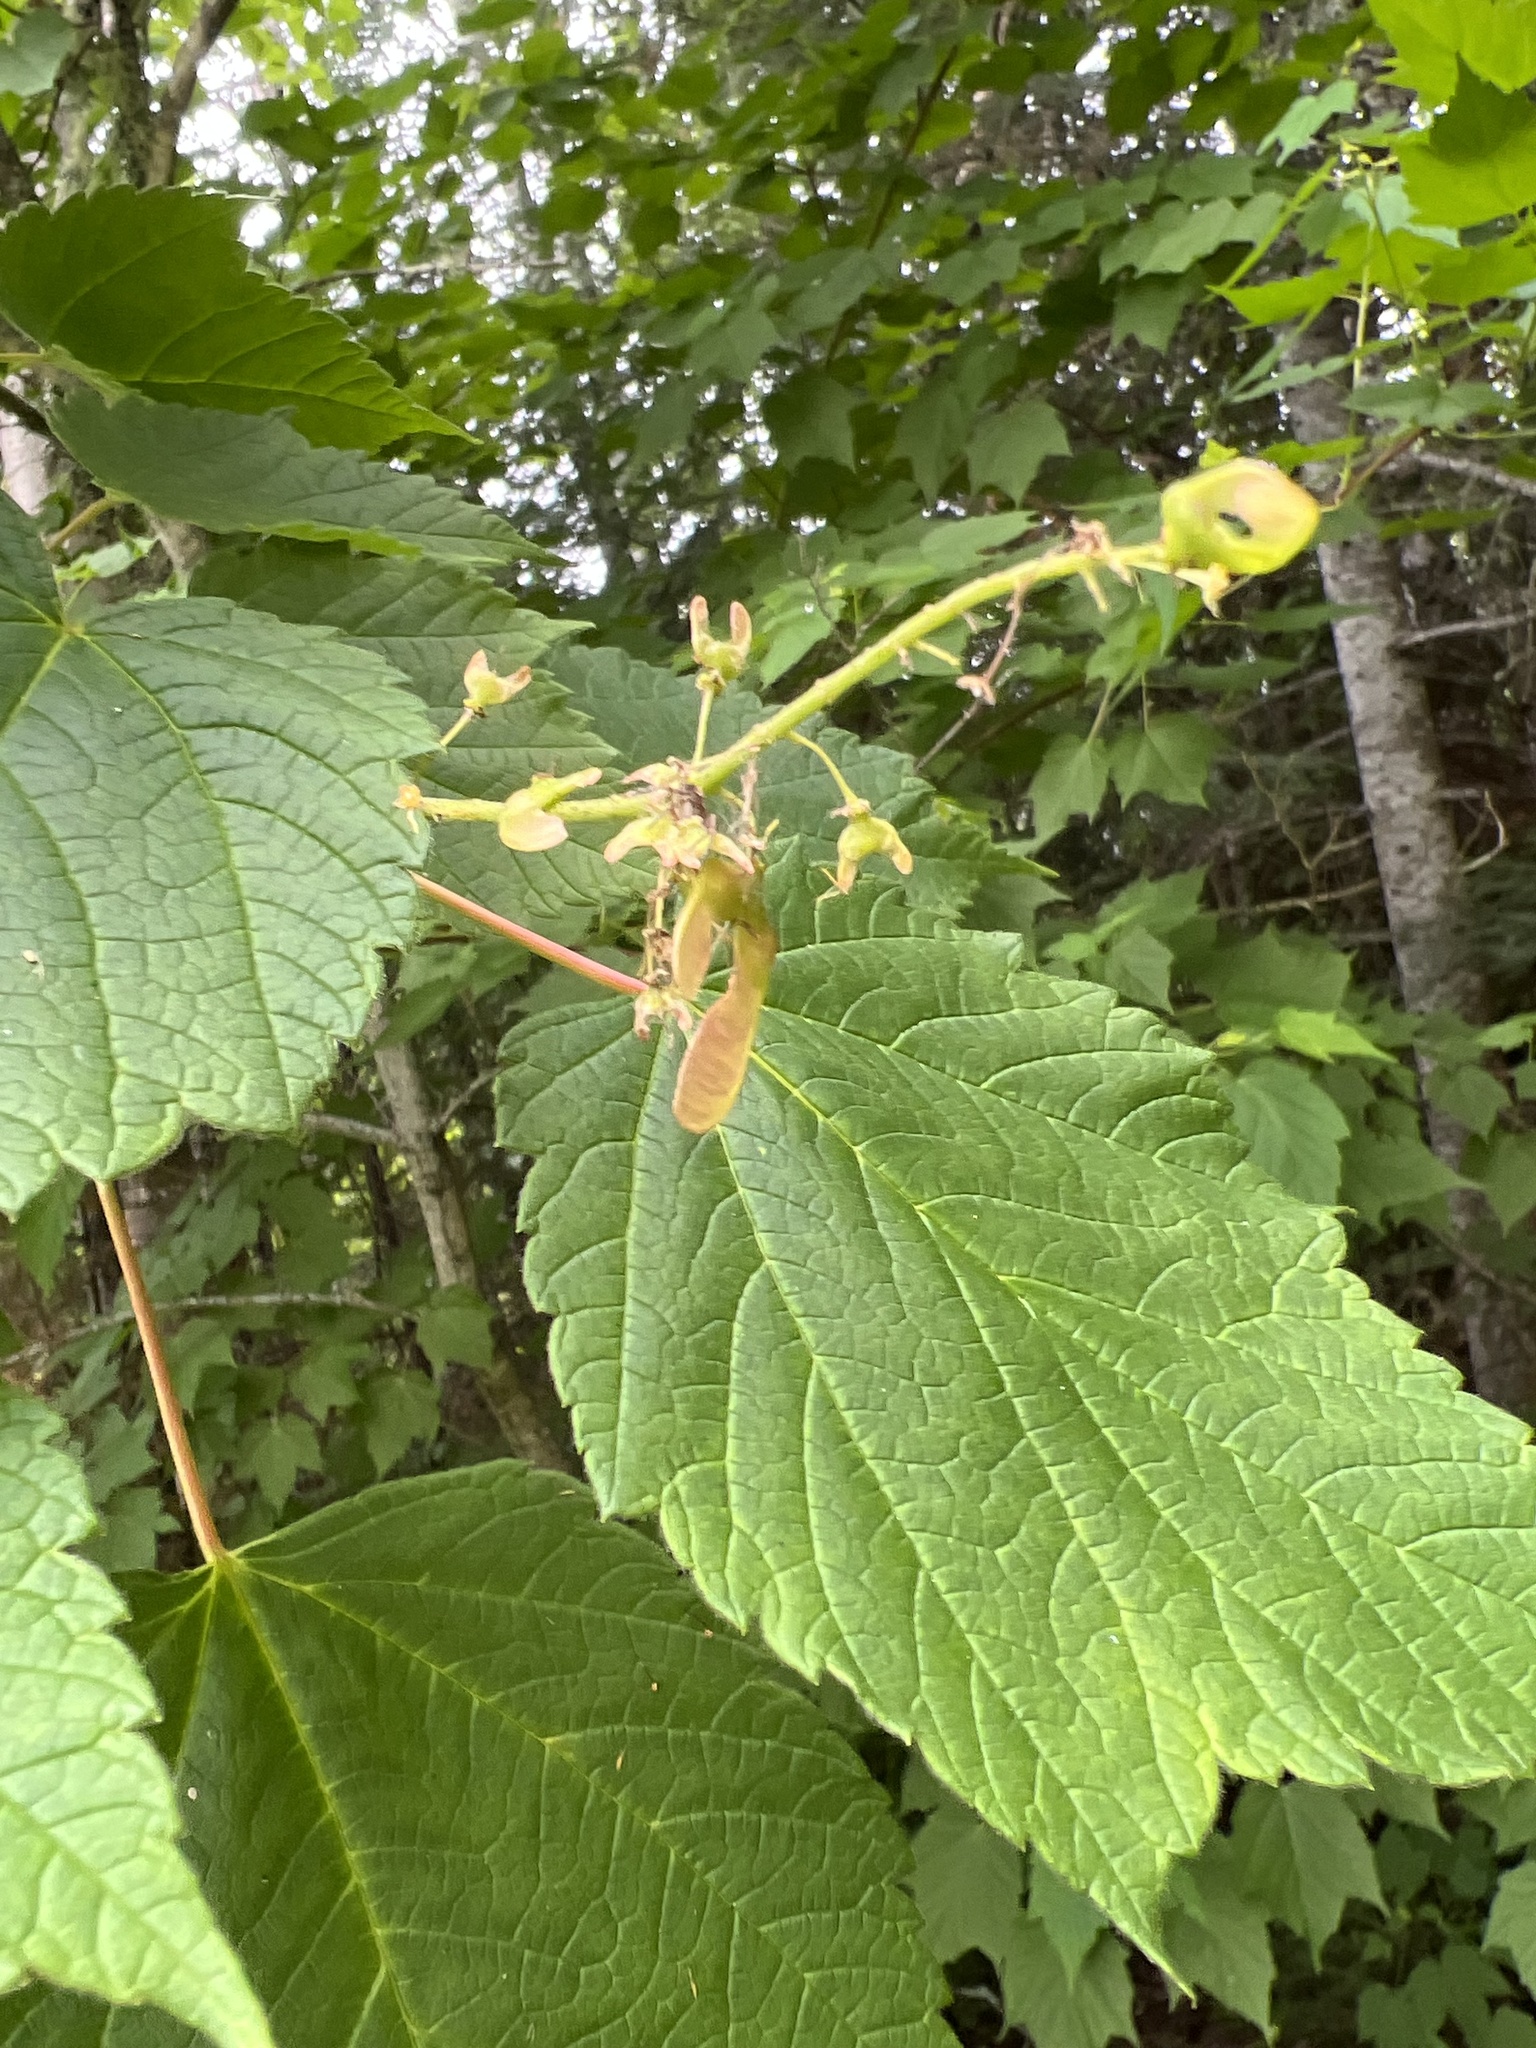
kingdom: Plantae
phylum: Tracheophyta
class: Magnoliopsida
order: Sapindales
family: Sapindaceae
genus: Acer
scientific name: Acer spicatum
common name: Mountain maple
